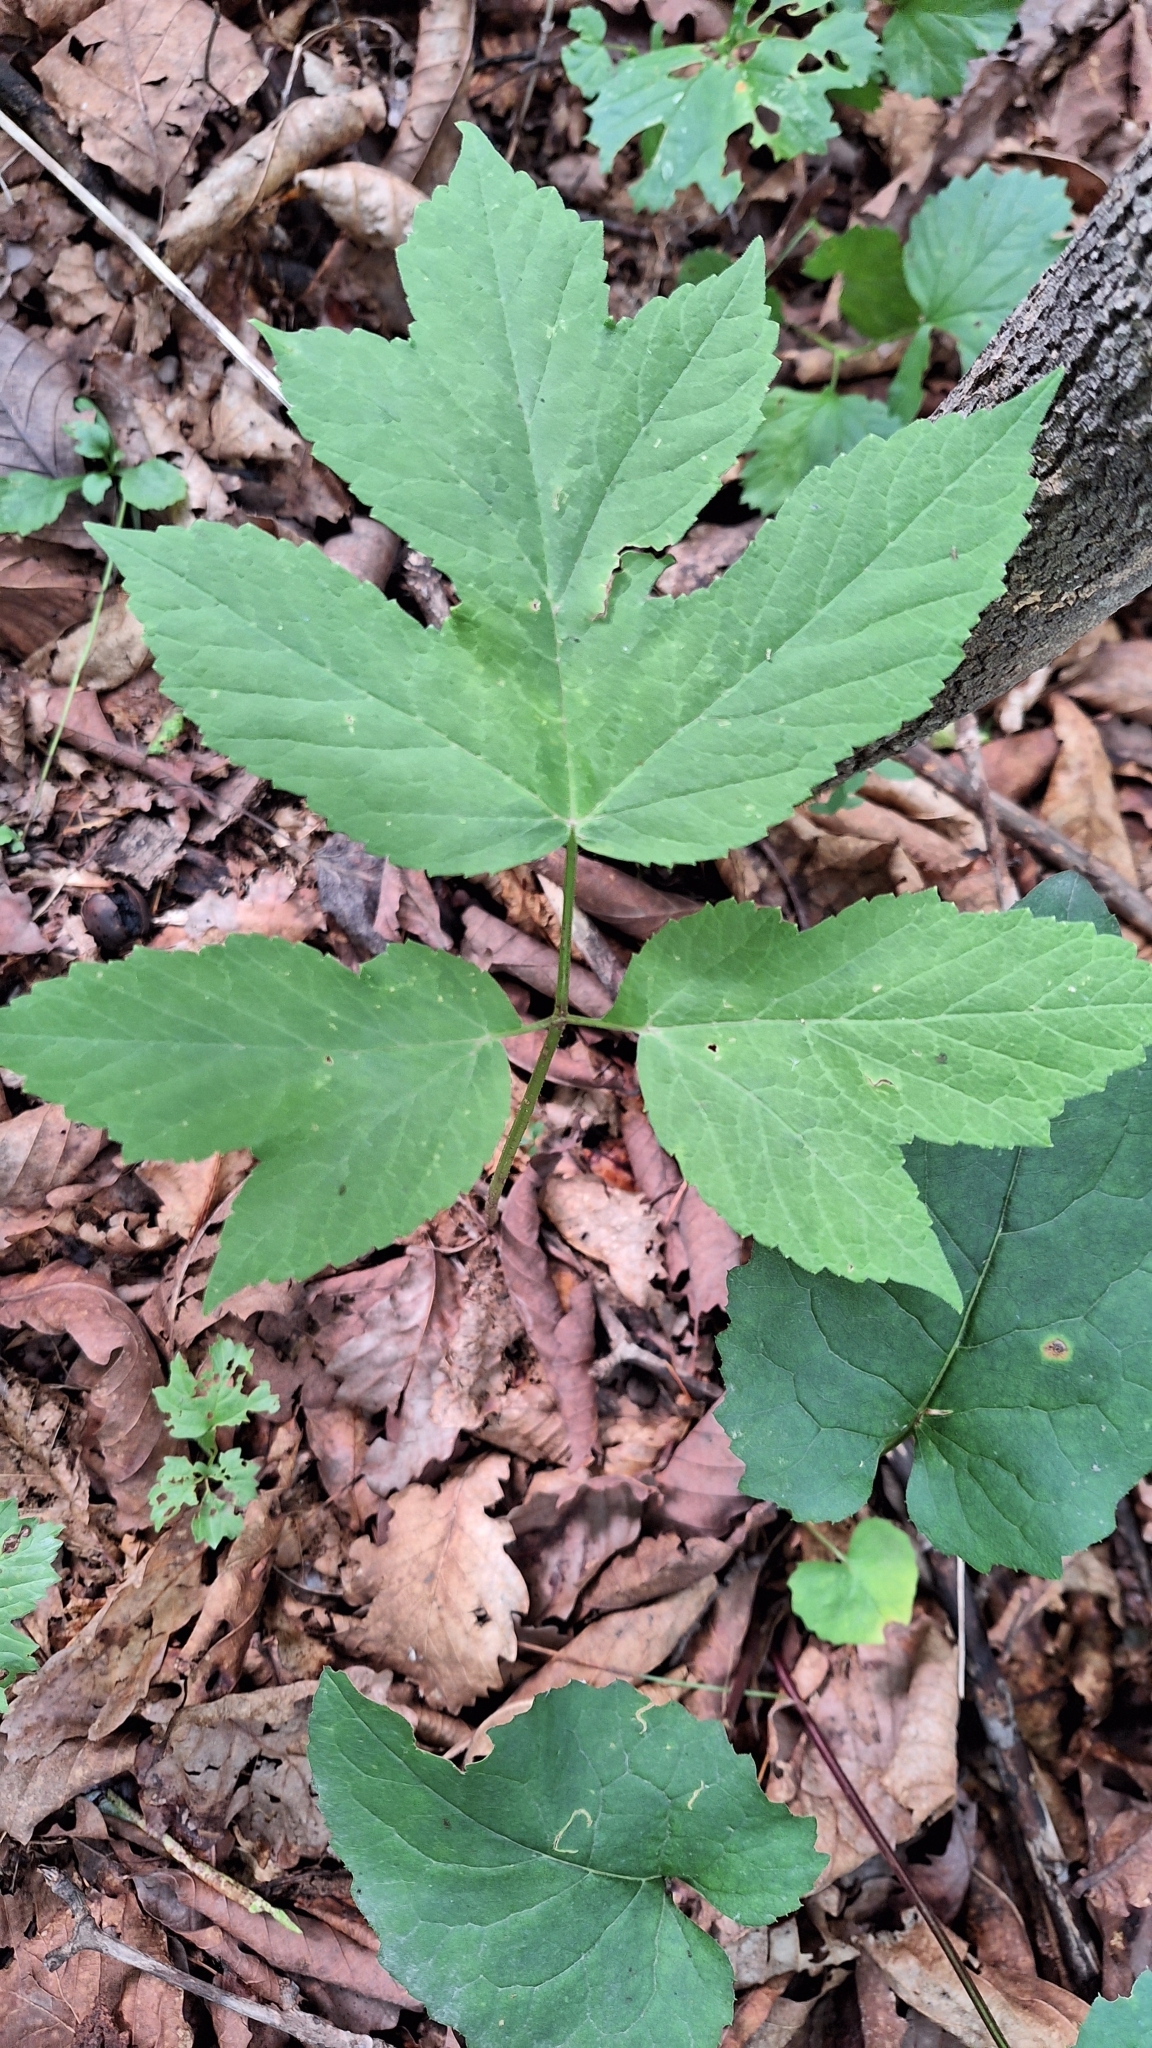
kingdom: Plantae
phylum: Tracheophyta
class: Magnoliopsida
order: Apiales
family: Apiaceae
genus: Heracleum
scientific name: Heracleum dissectum
